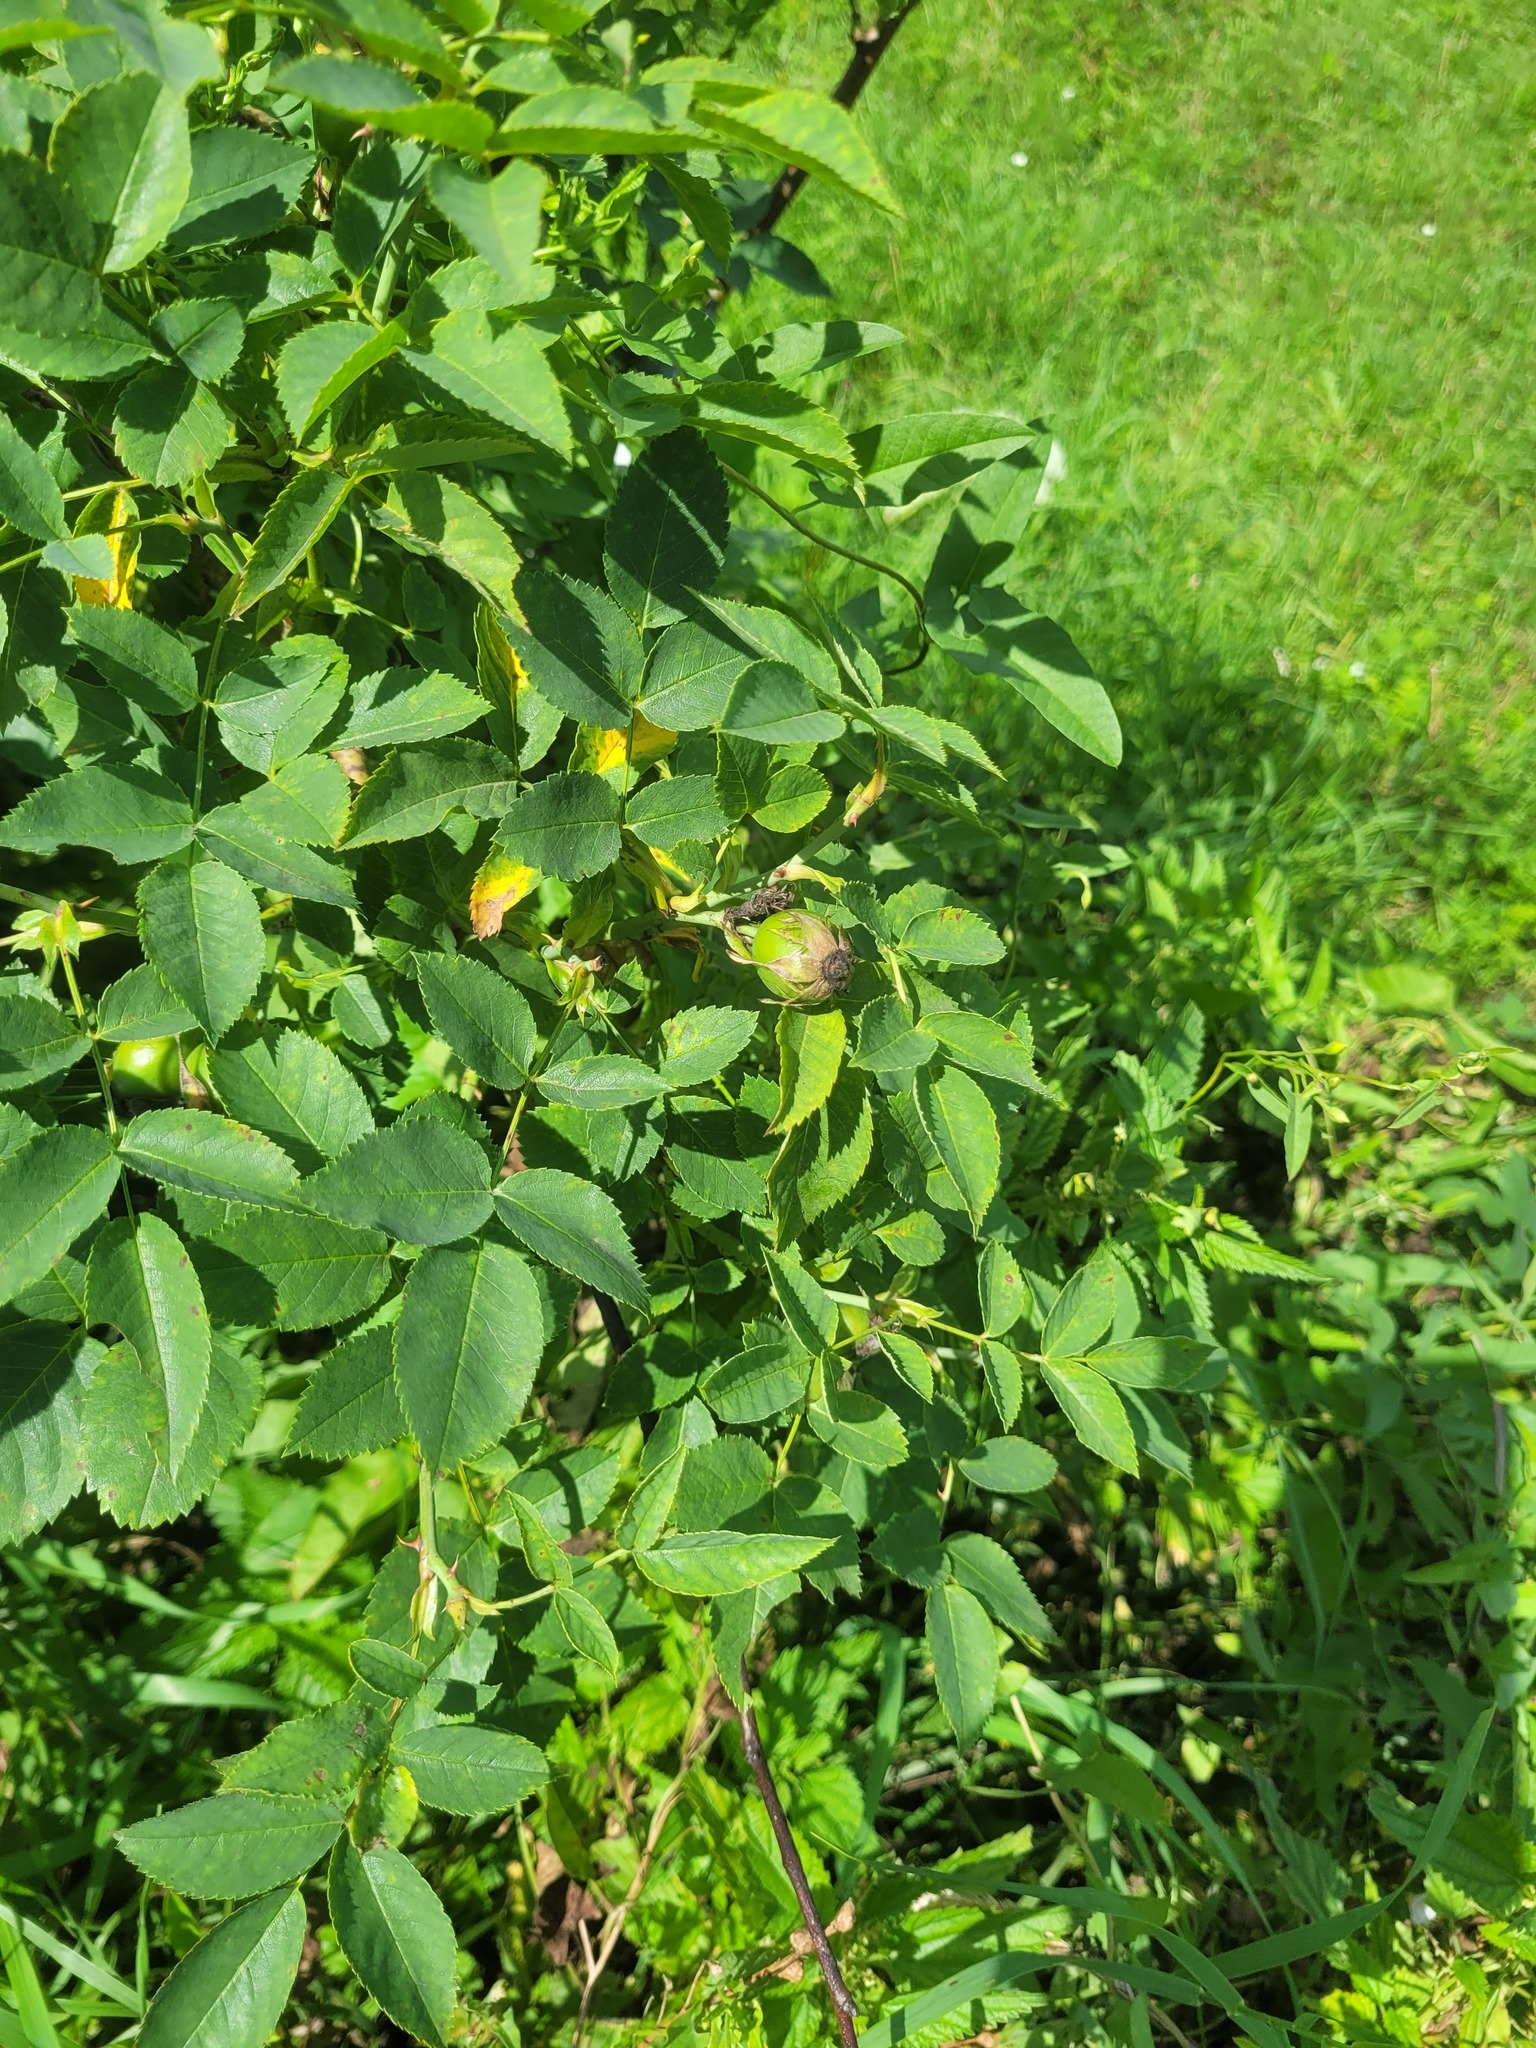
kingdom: Plantae
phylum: Tracheophyta
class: Magnoliopsida
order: Rosales
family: Rosaceae
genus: Rosa
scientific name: Rosa canina
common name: Dog rose
